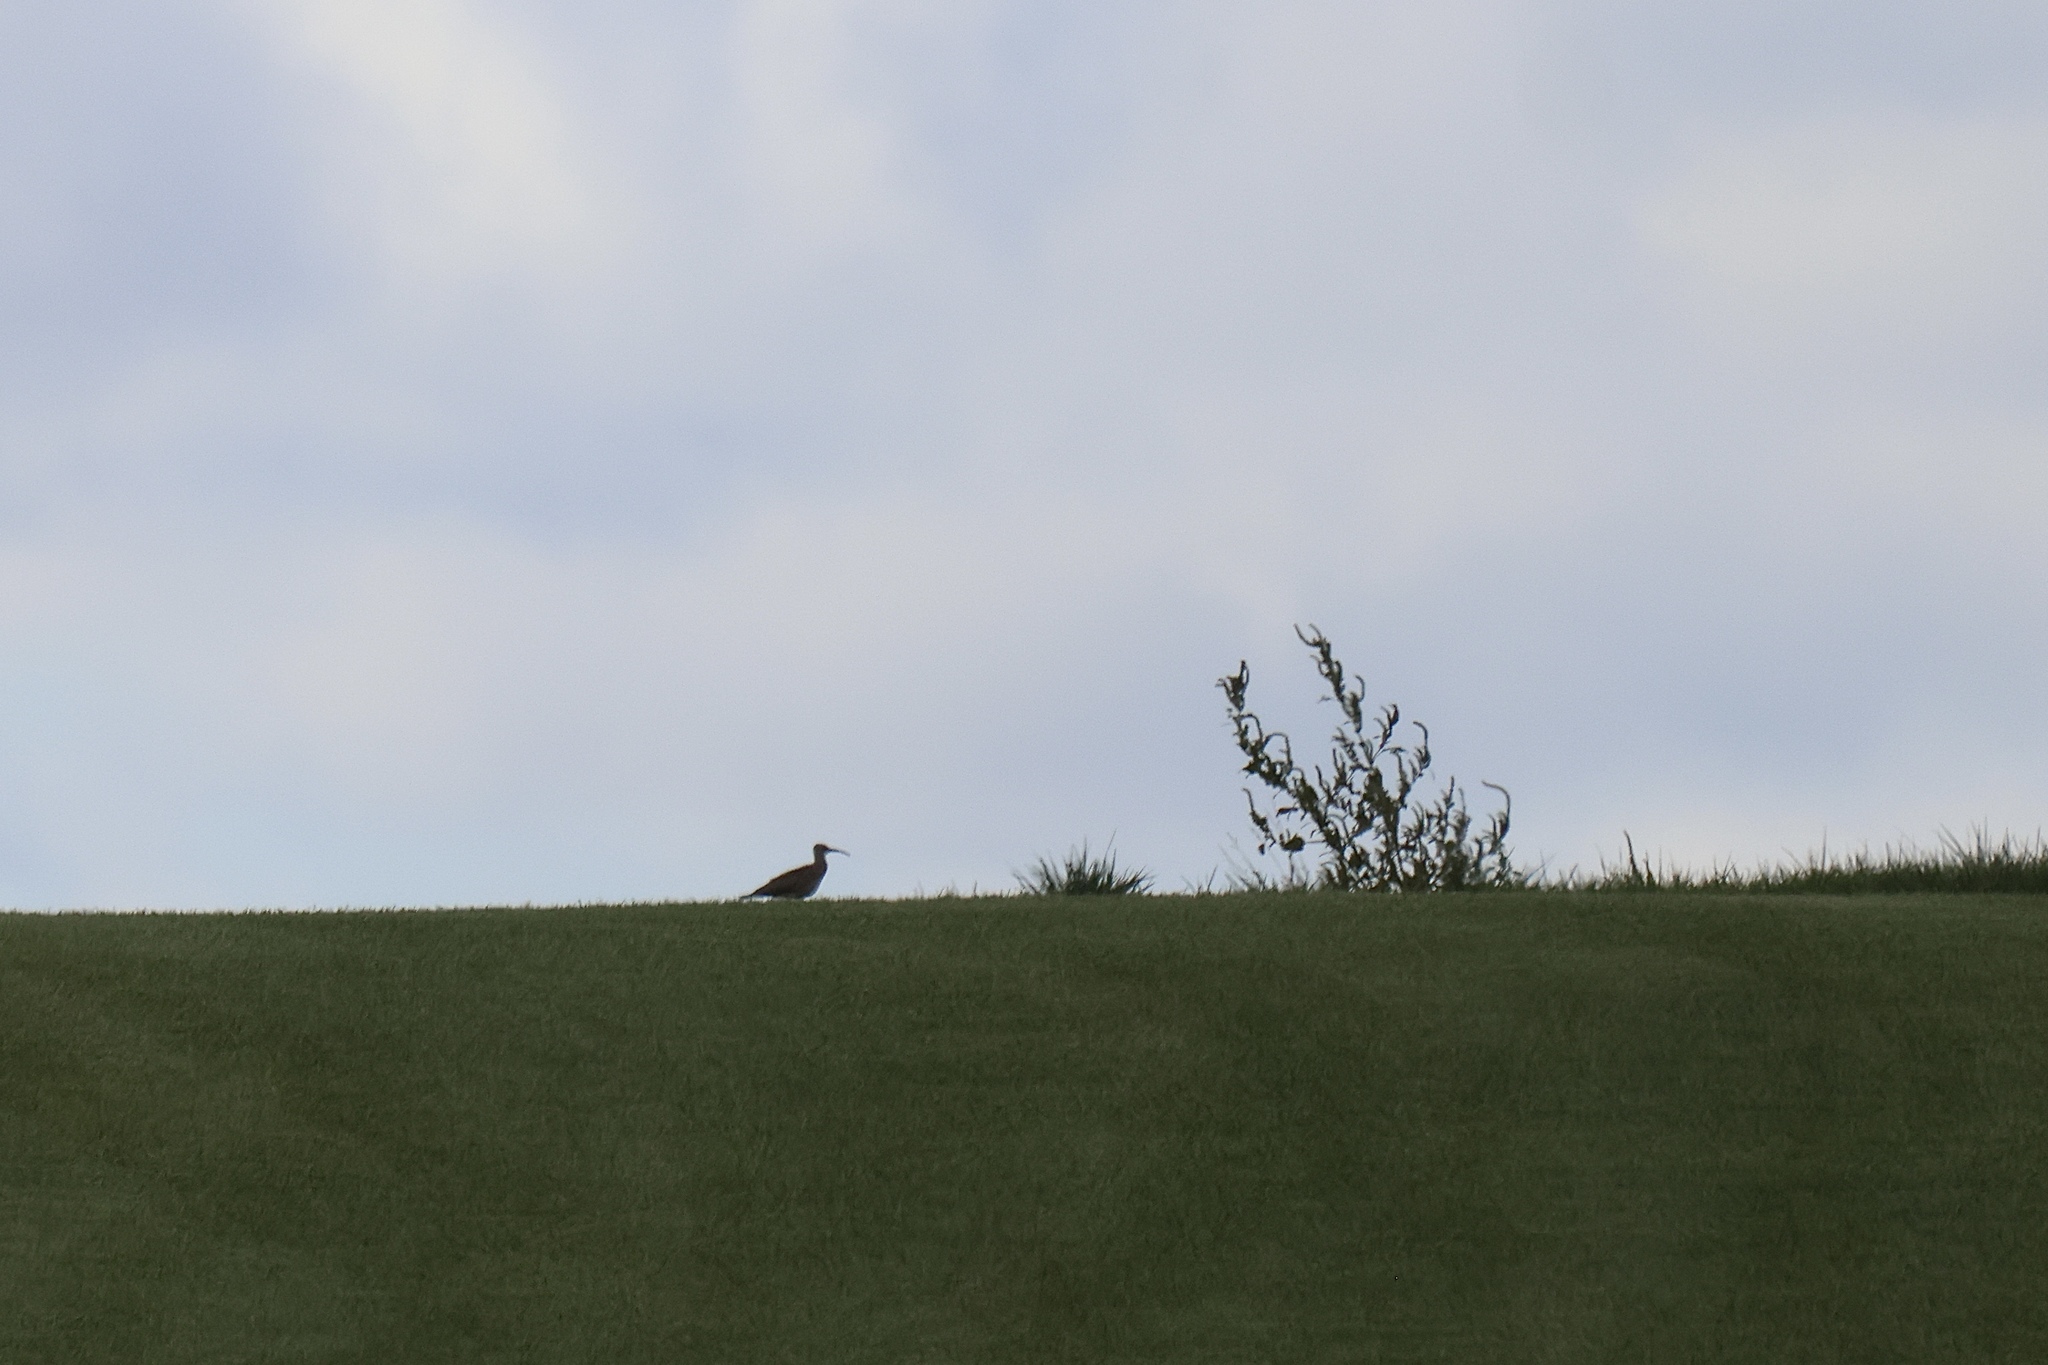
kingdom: Animalia
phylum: Chordata
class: Aves
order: Charadriiformes
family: Scolopacidae
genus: Numenius
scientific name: Numenius phaeopus
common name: Whimbrel
